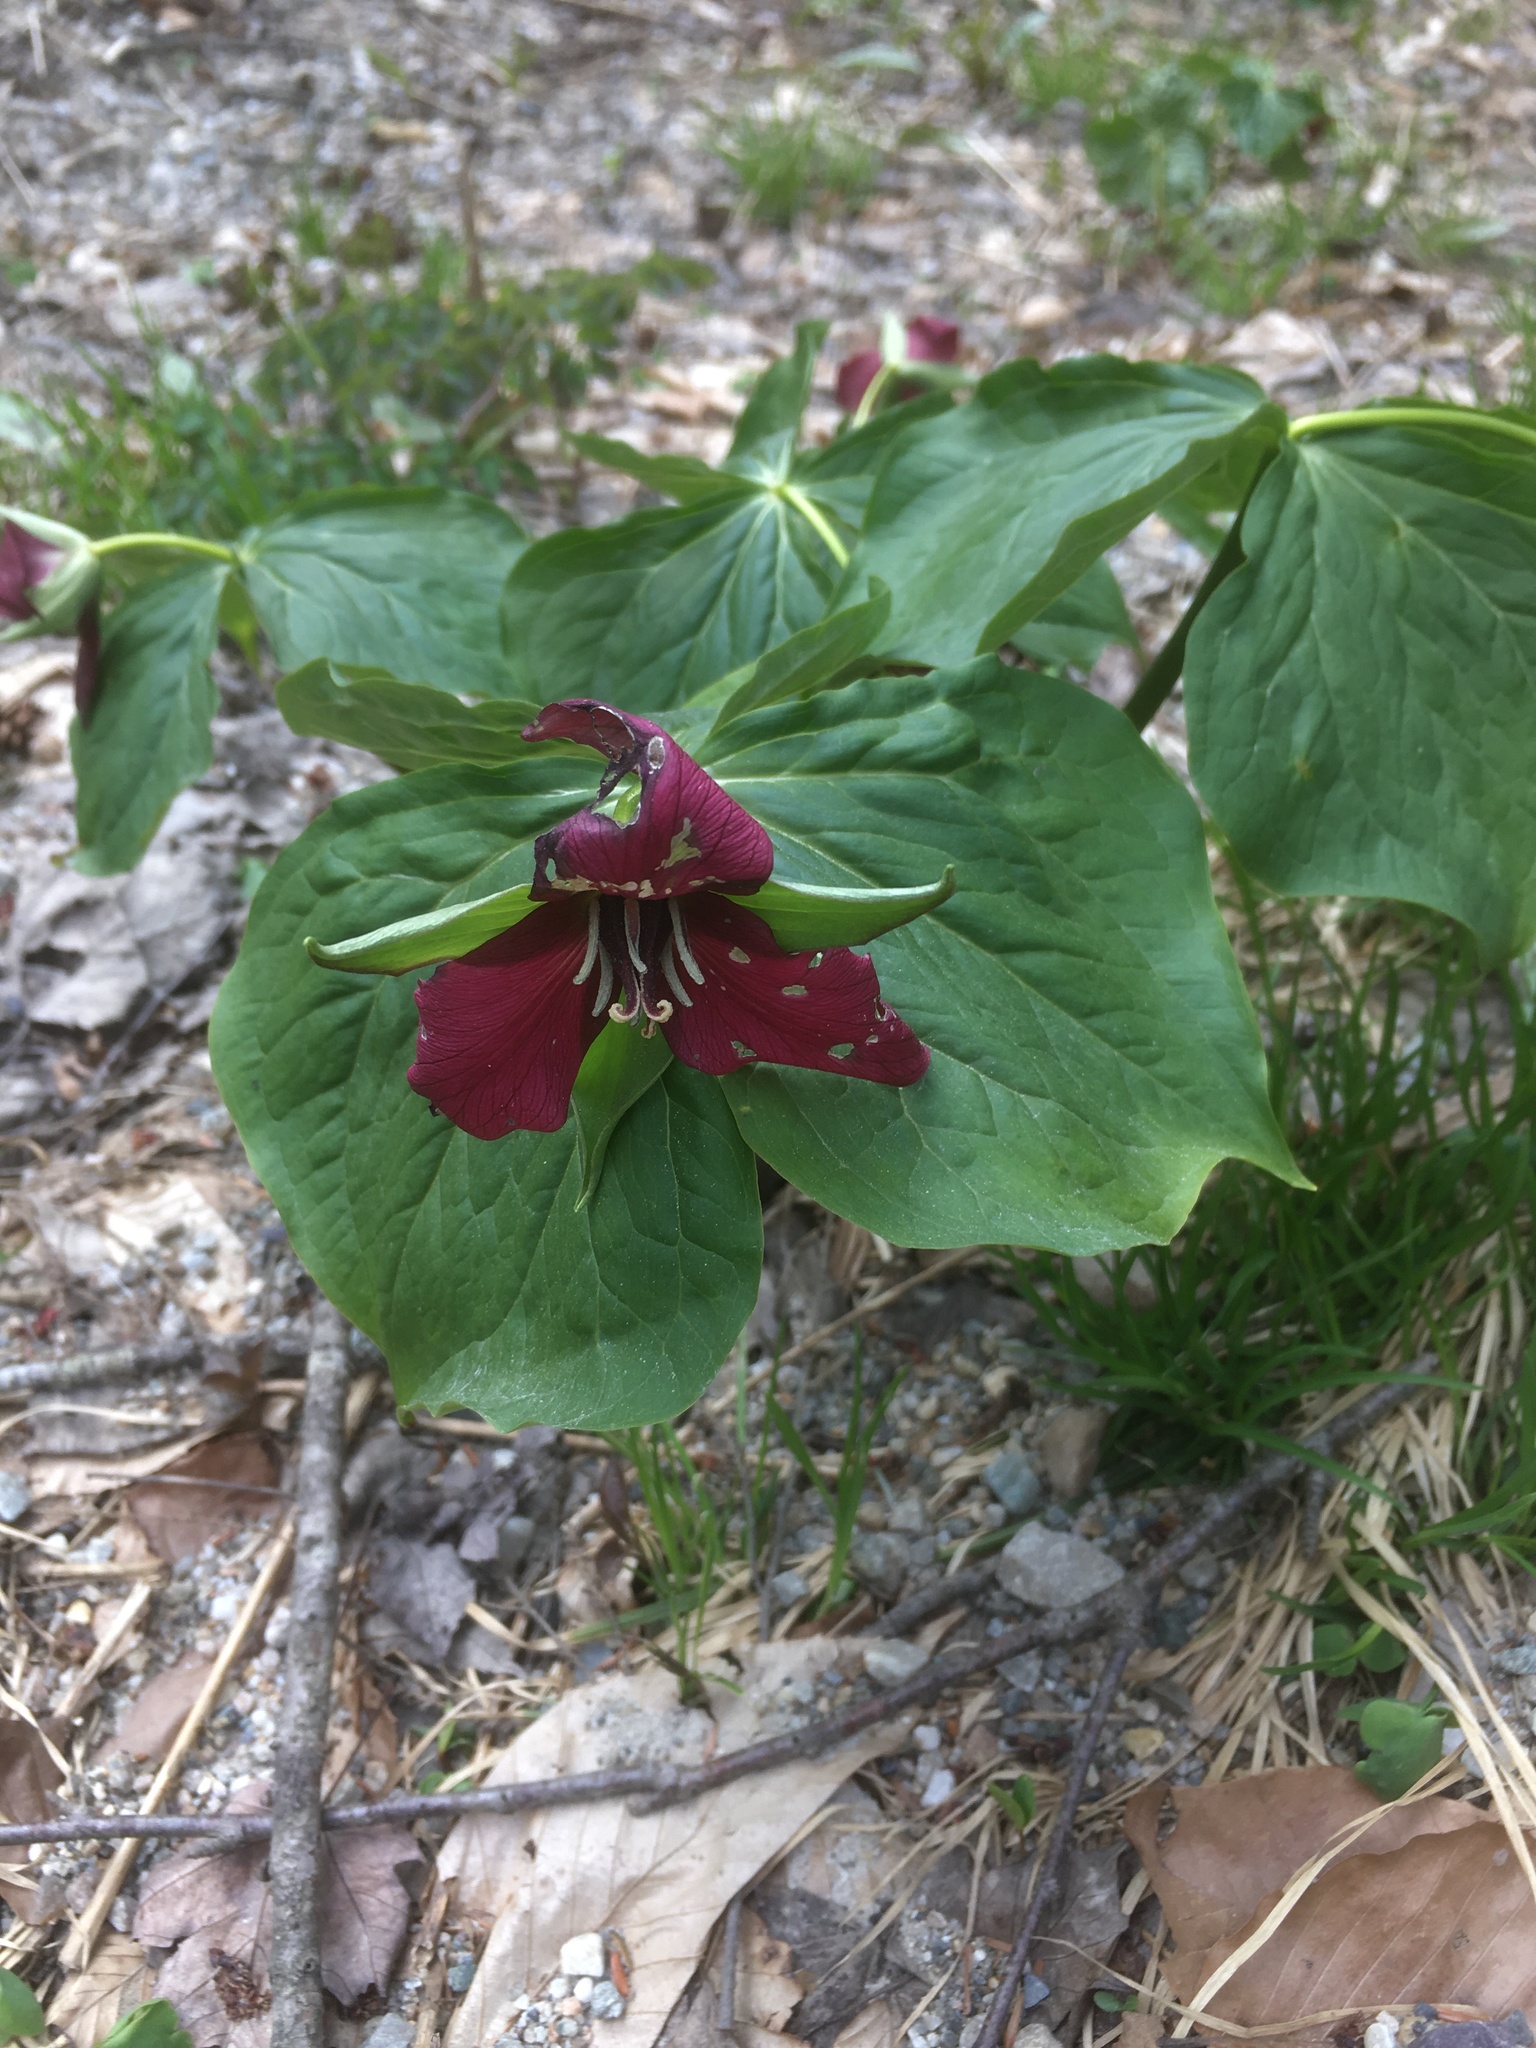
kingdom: Plantae
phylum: Tracheophyta
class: Liliopsida
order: Liliales
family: Melanthiaceae
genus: Trillium
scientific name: Trillium erectum
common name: Purple trillium
